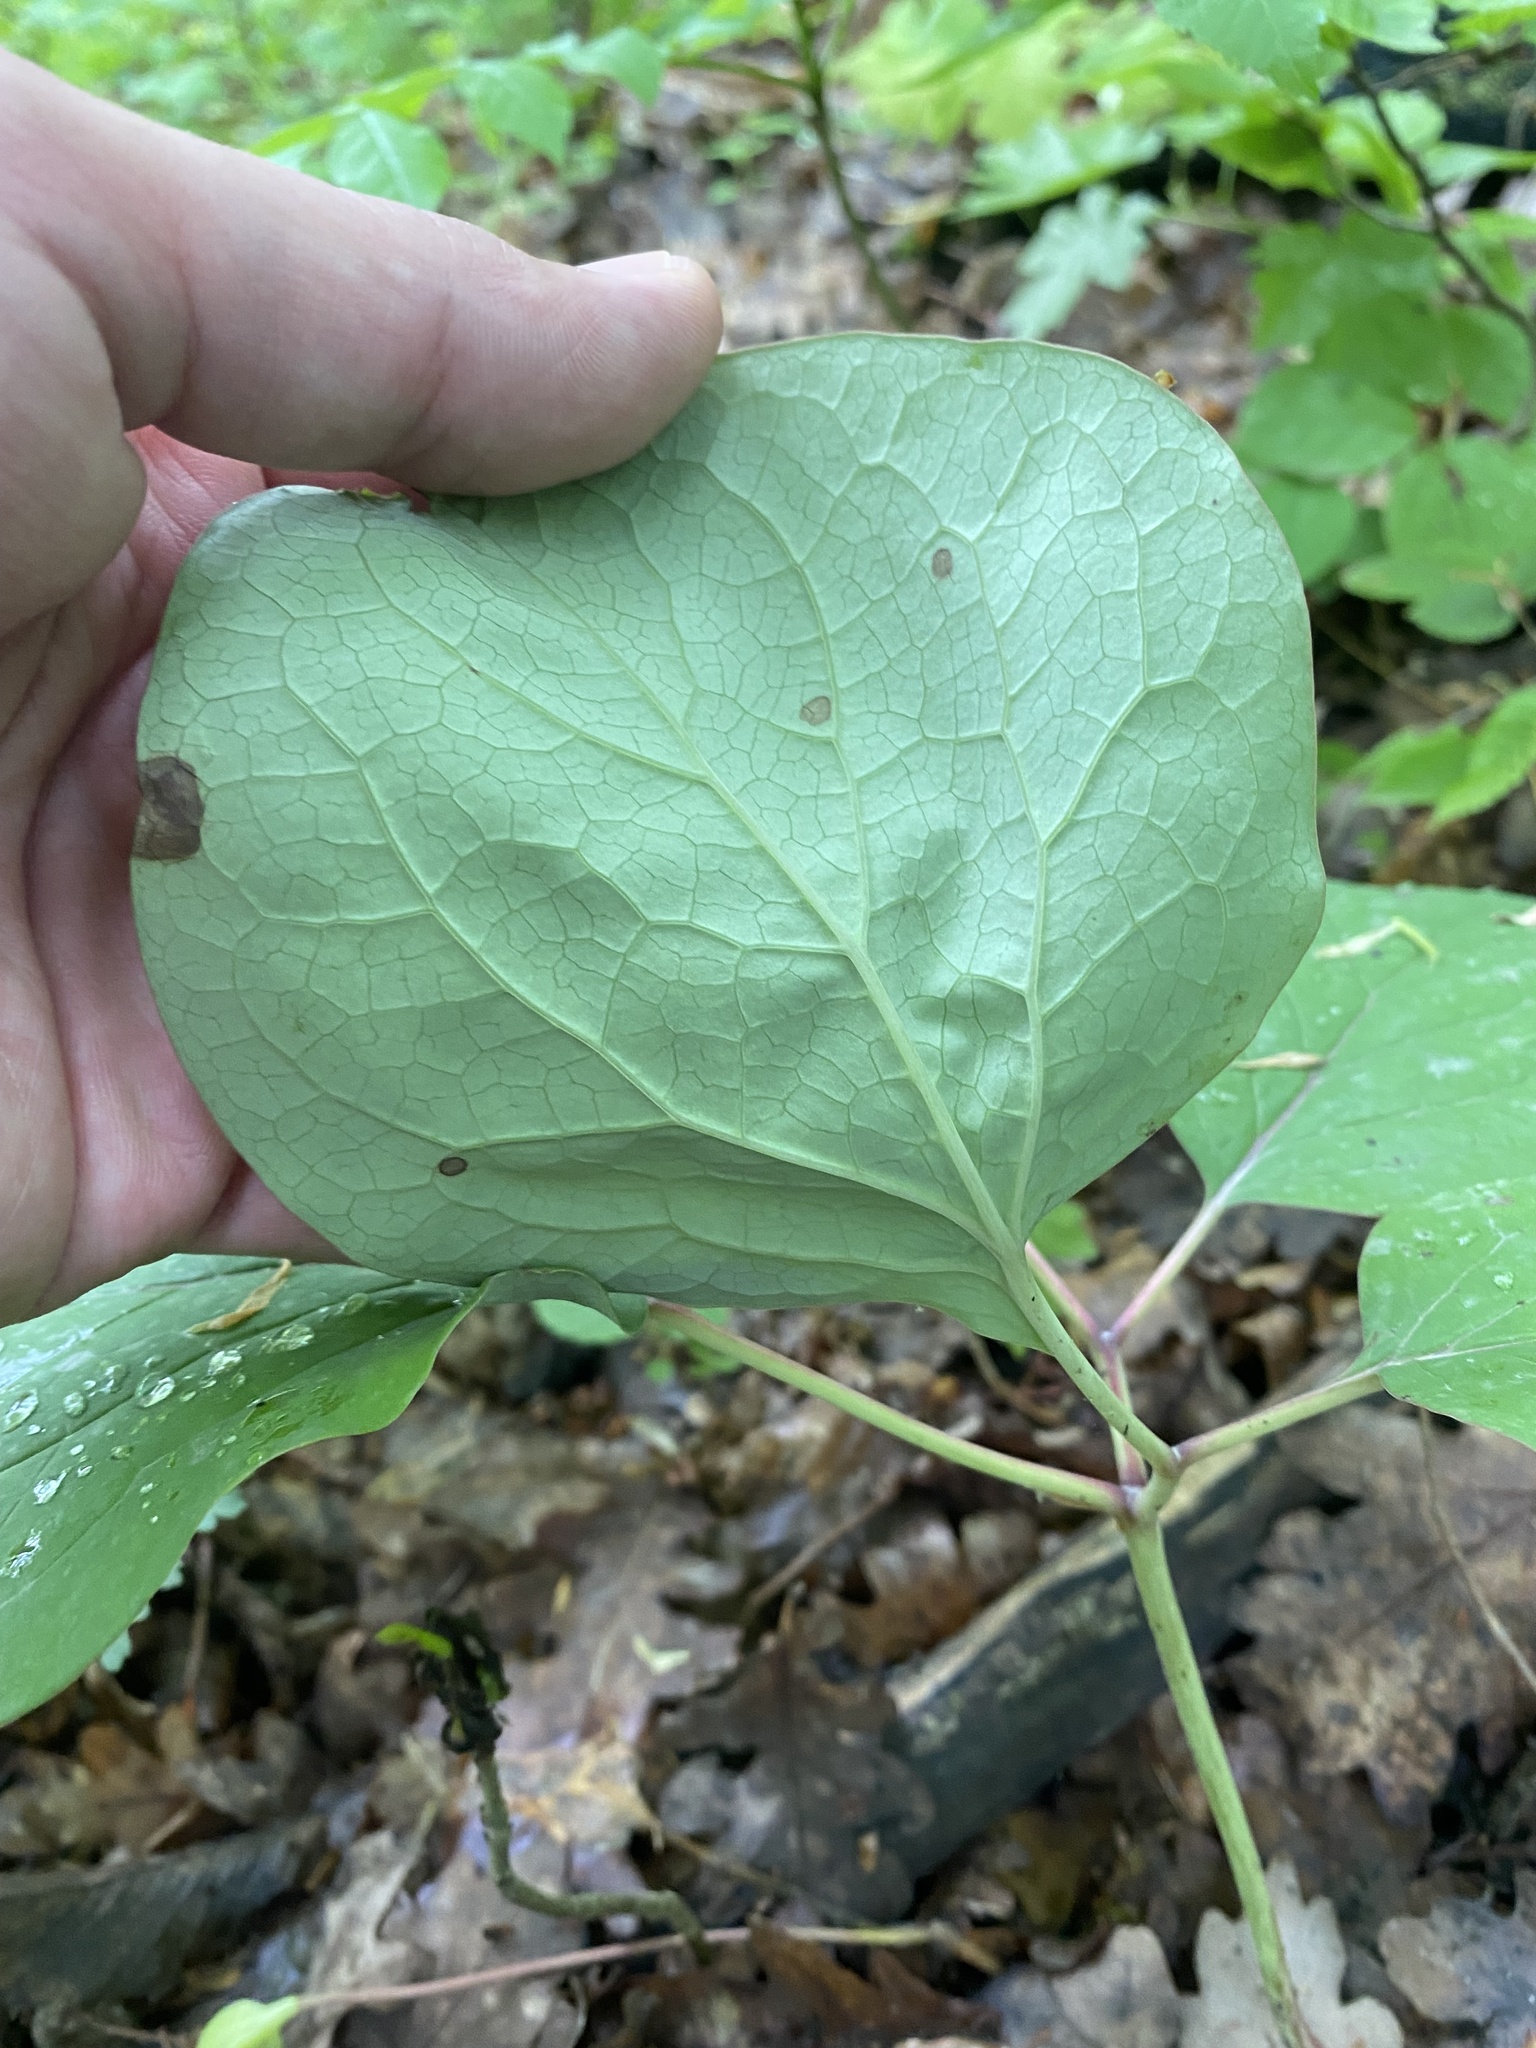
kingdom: Plantae
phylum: Tracheophyta
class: Magnoliopsida
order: Saxifragales
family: Paeoniaceae
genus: Paeonia
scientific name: Paeonia caucasica
